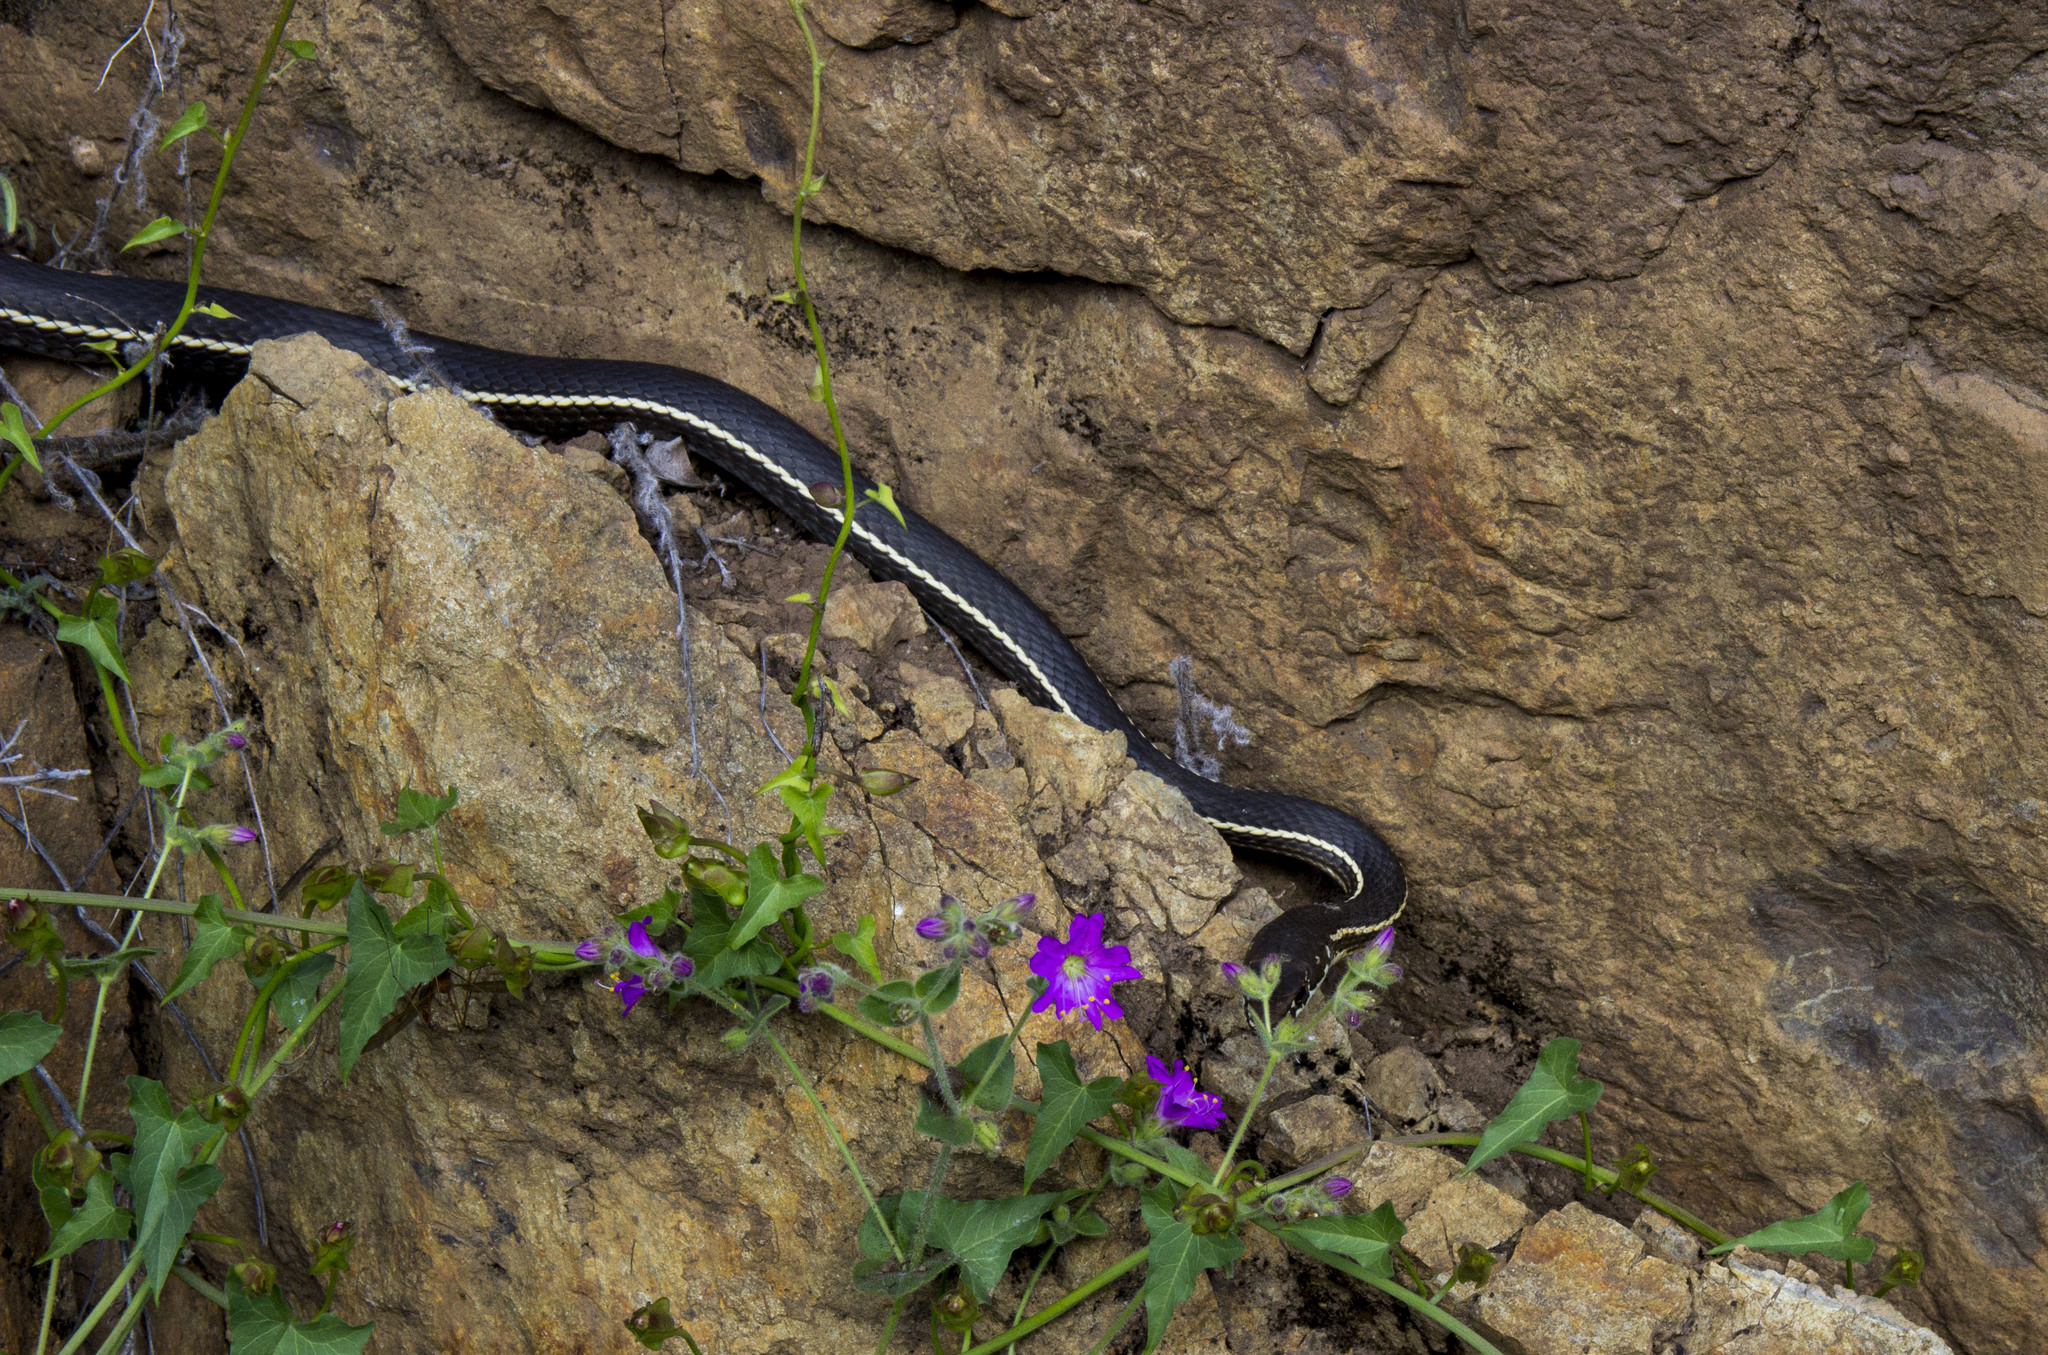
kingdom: Animalia
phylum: Chordata
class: Squamata
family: Colubridae
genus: Masticophis
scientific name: Masticophis lateralis
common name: Striped racer
